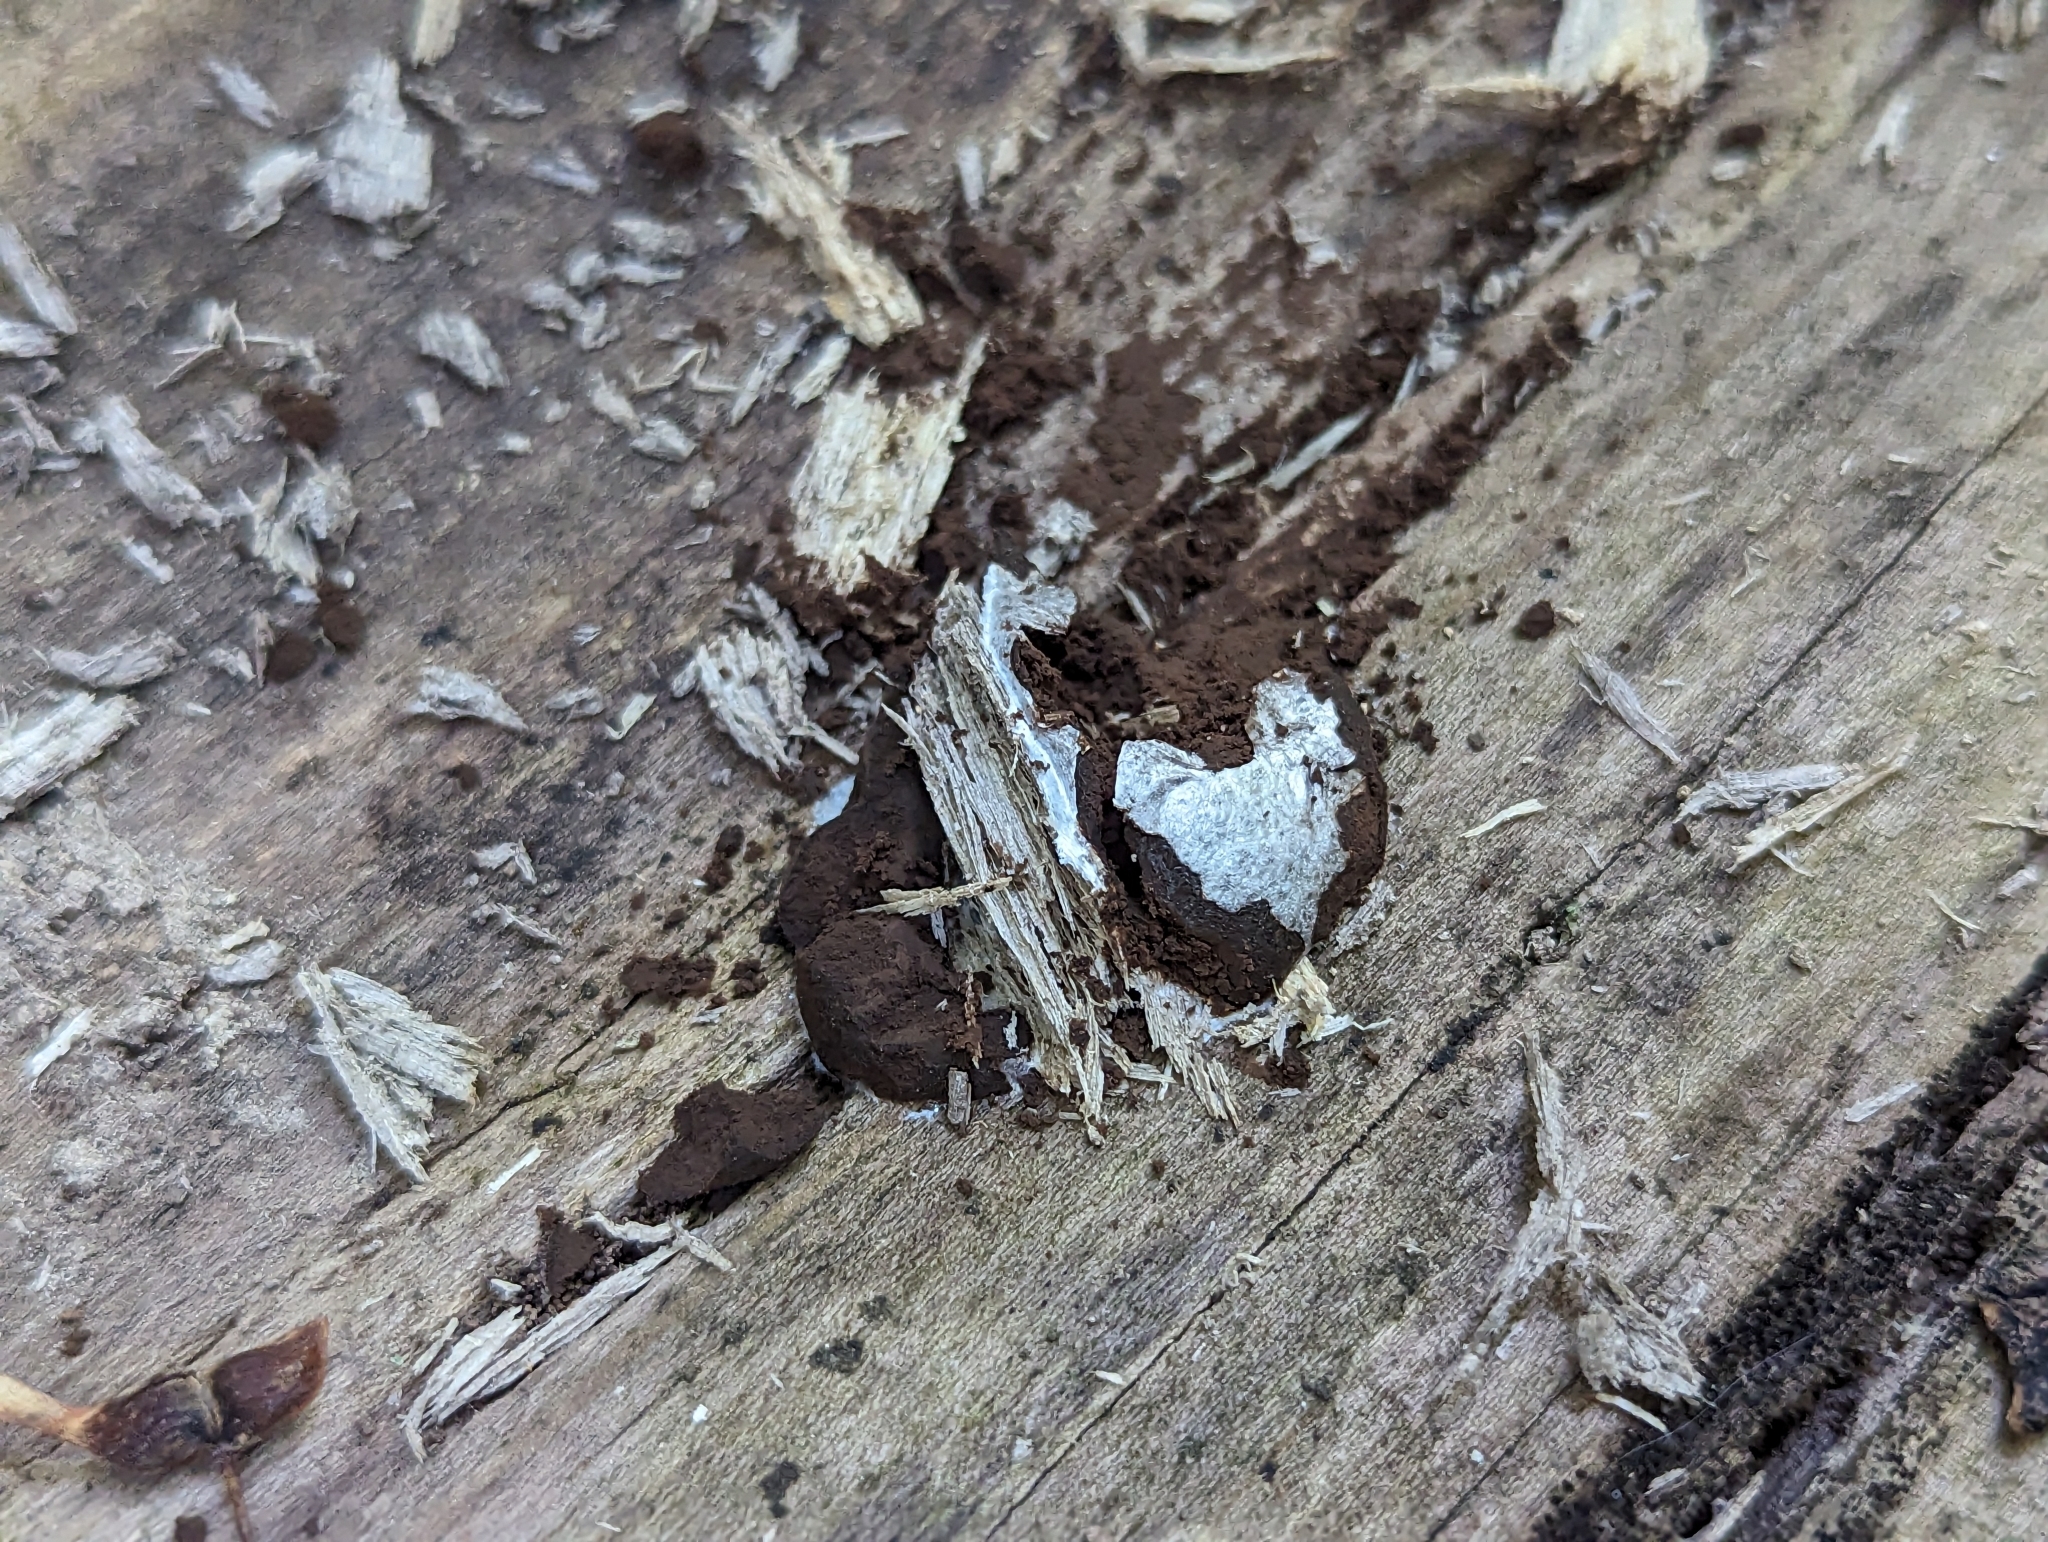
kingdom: Protozoa
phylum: Mycetozoa
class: Myxomycetes
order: Cribrariales
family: Tubiferaceae
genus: Reticularia
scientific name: Reticularia lycoperdon
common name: False puffball
